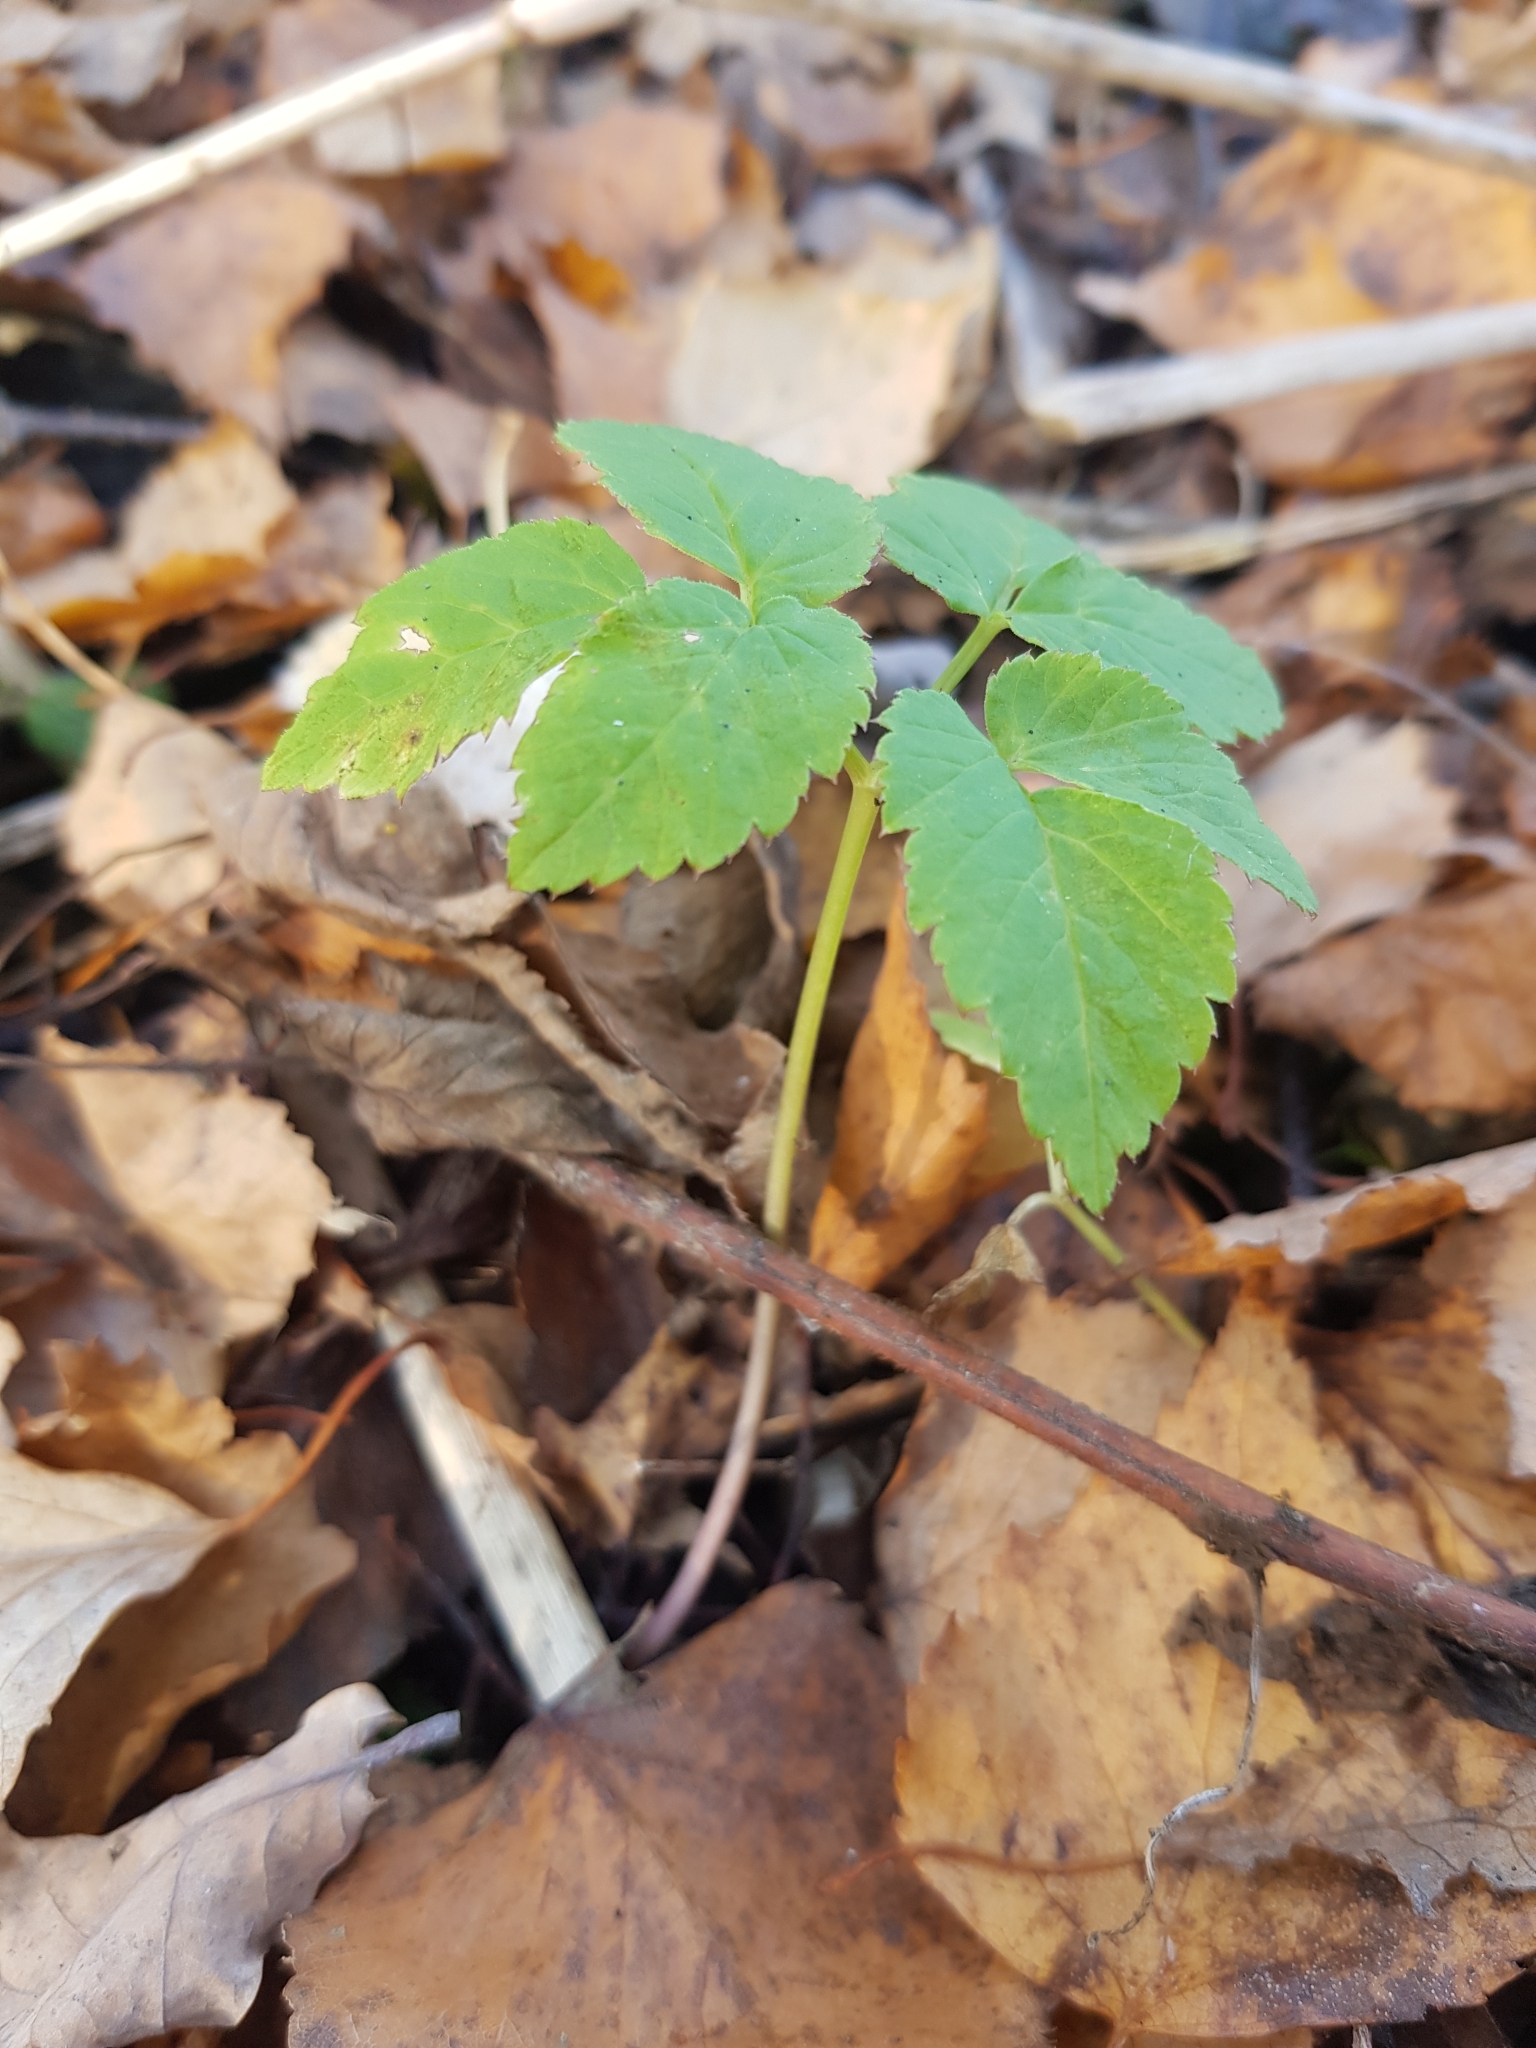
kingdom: Plantae
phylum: Tracheophyta
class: Magnoliopsida
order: Apiales
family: Apiaceae
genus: Aegopodium
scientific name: Aegopodium podagraria
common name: Ground-elder
